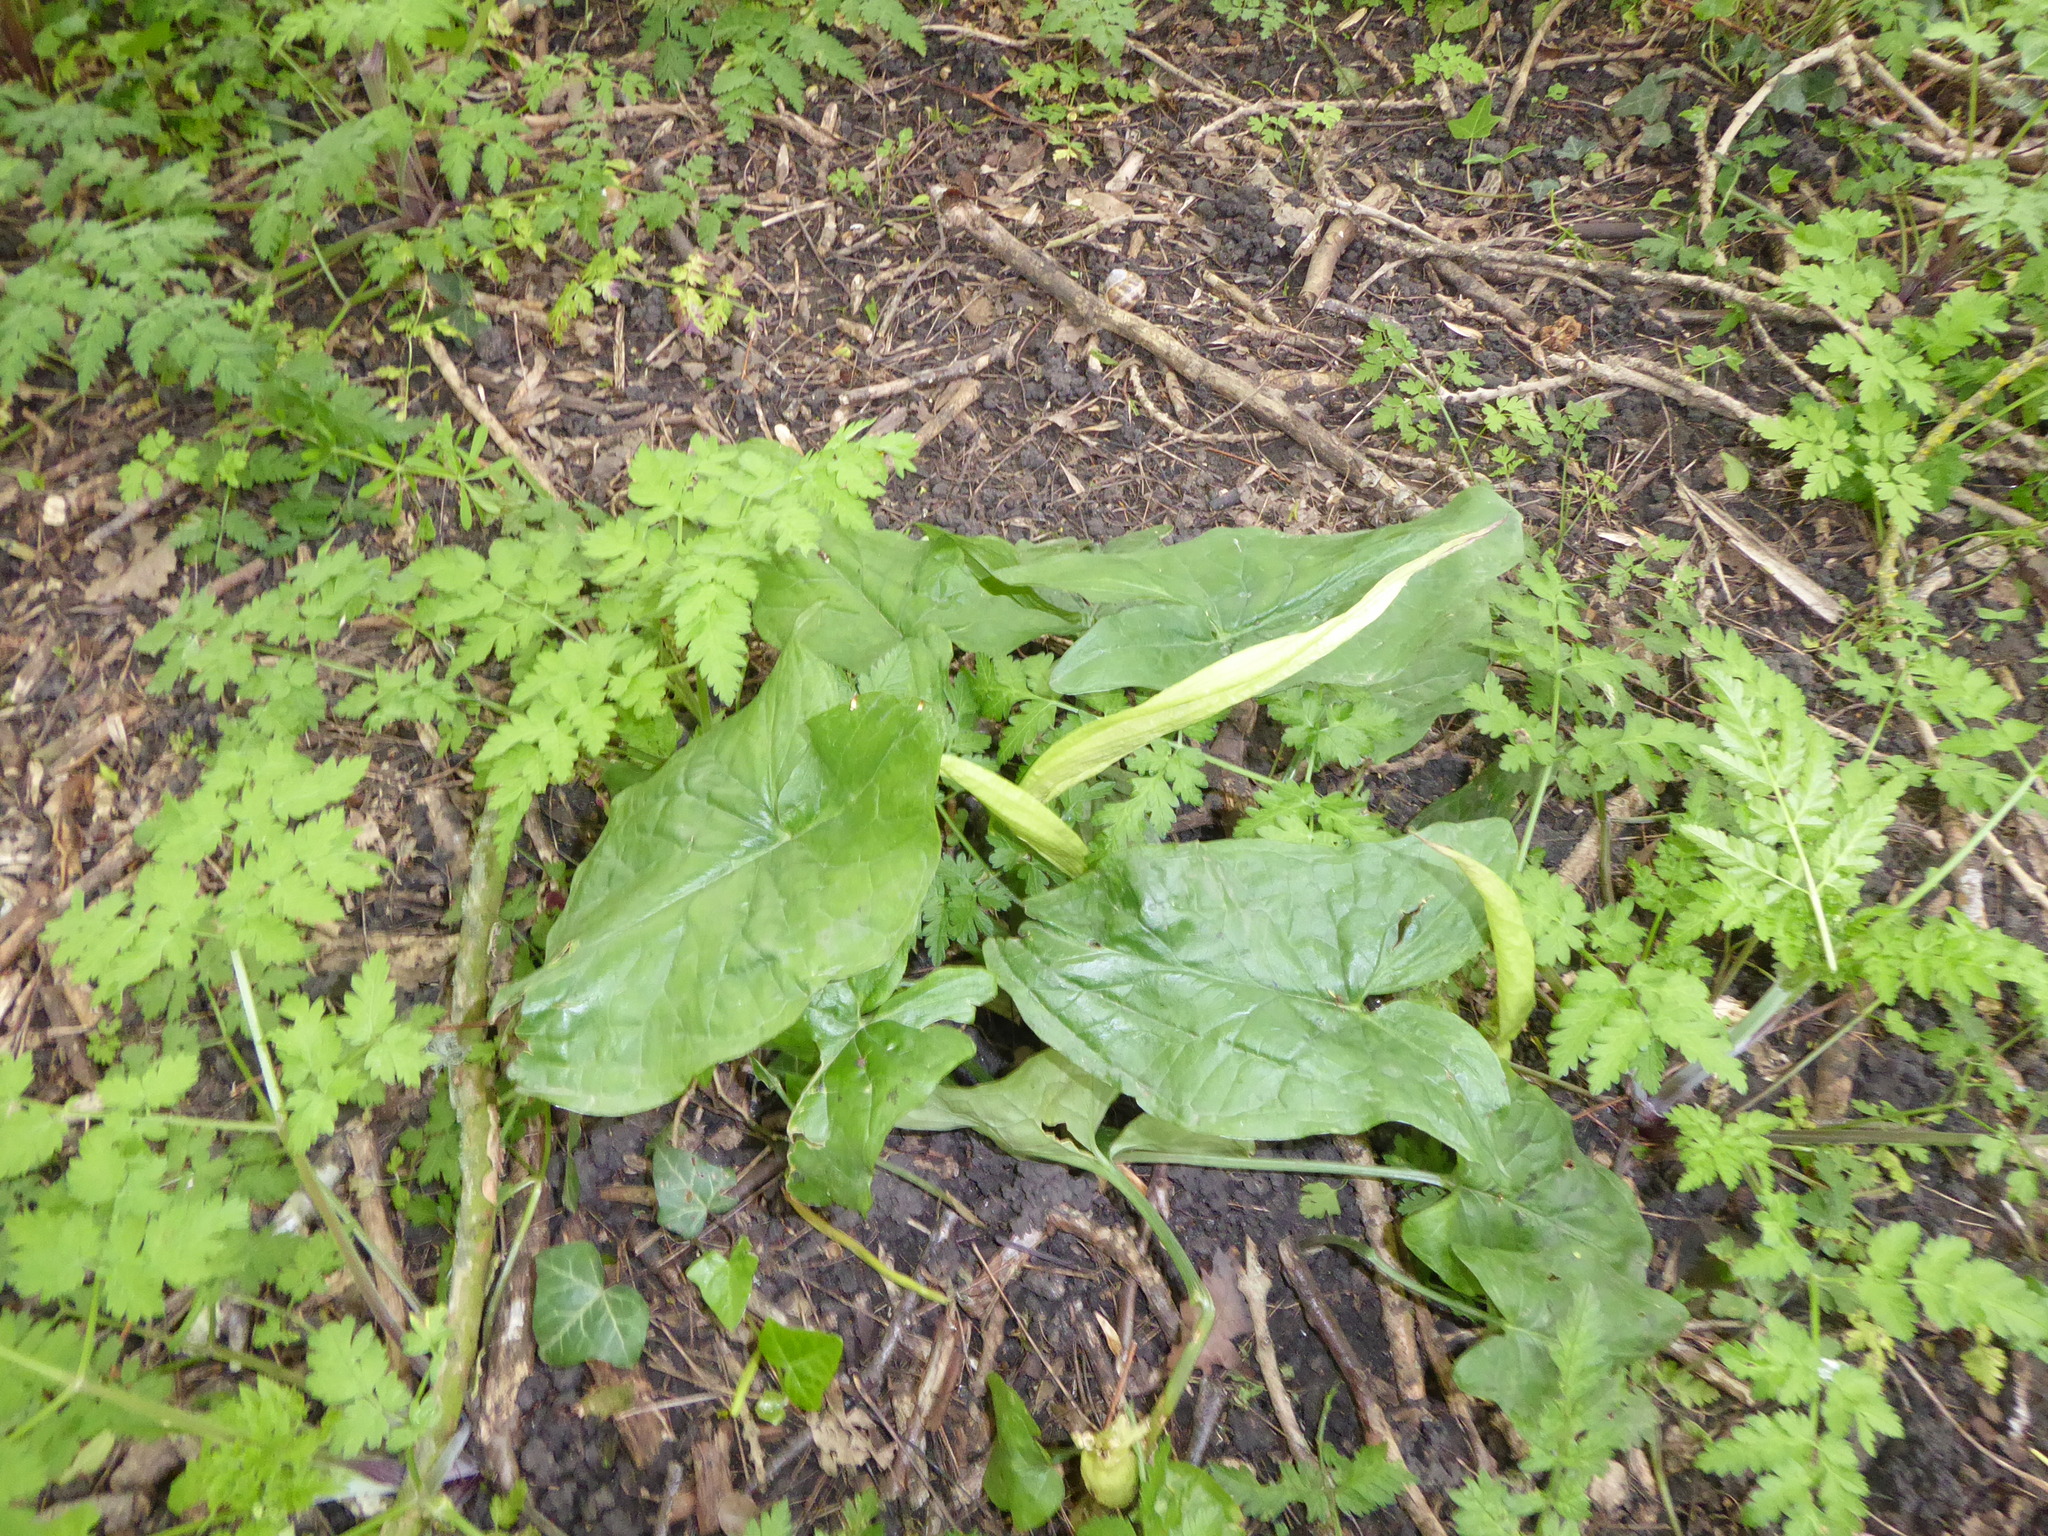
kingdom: Plantae
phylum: Tracheophyta
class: Liliopsida
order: Alismatales
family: Araceae
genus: Arum
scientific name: Arum maculatum
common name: Lords-and-ladies
